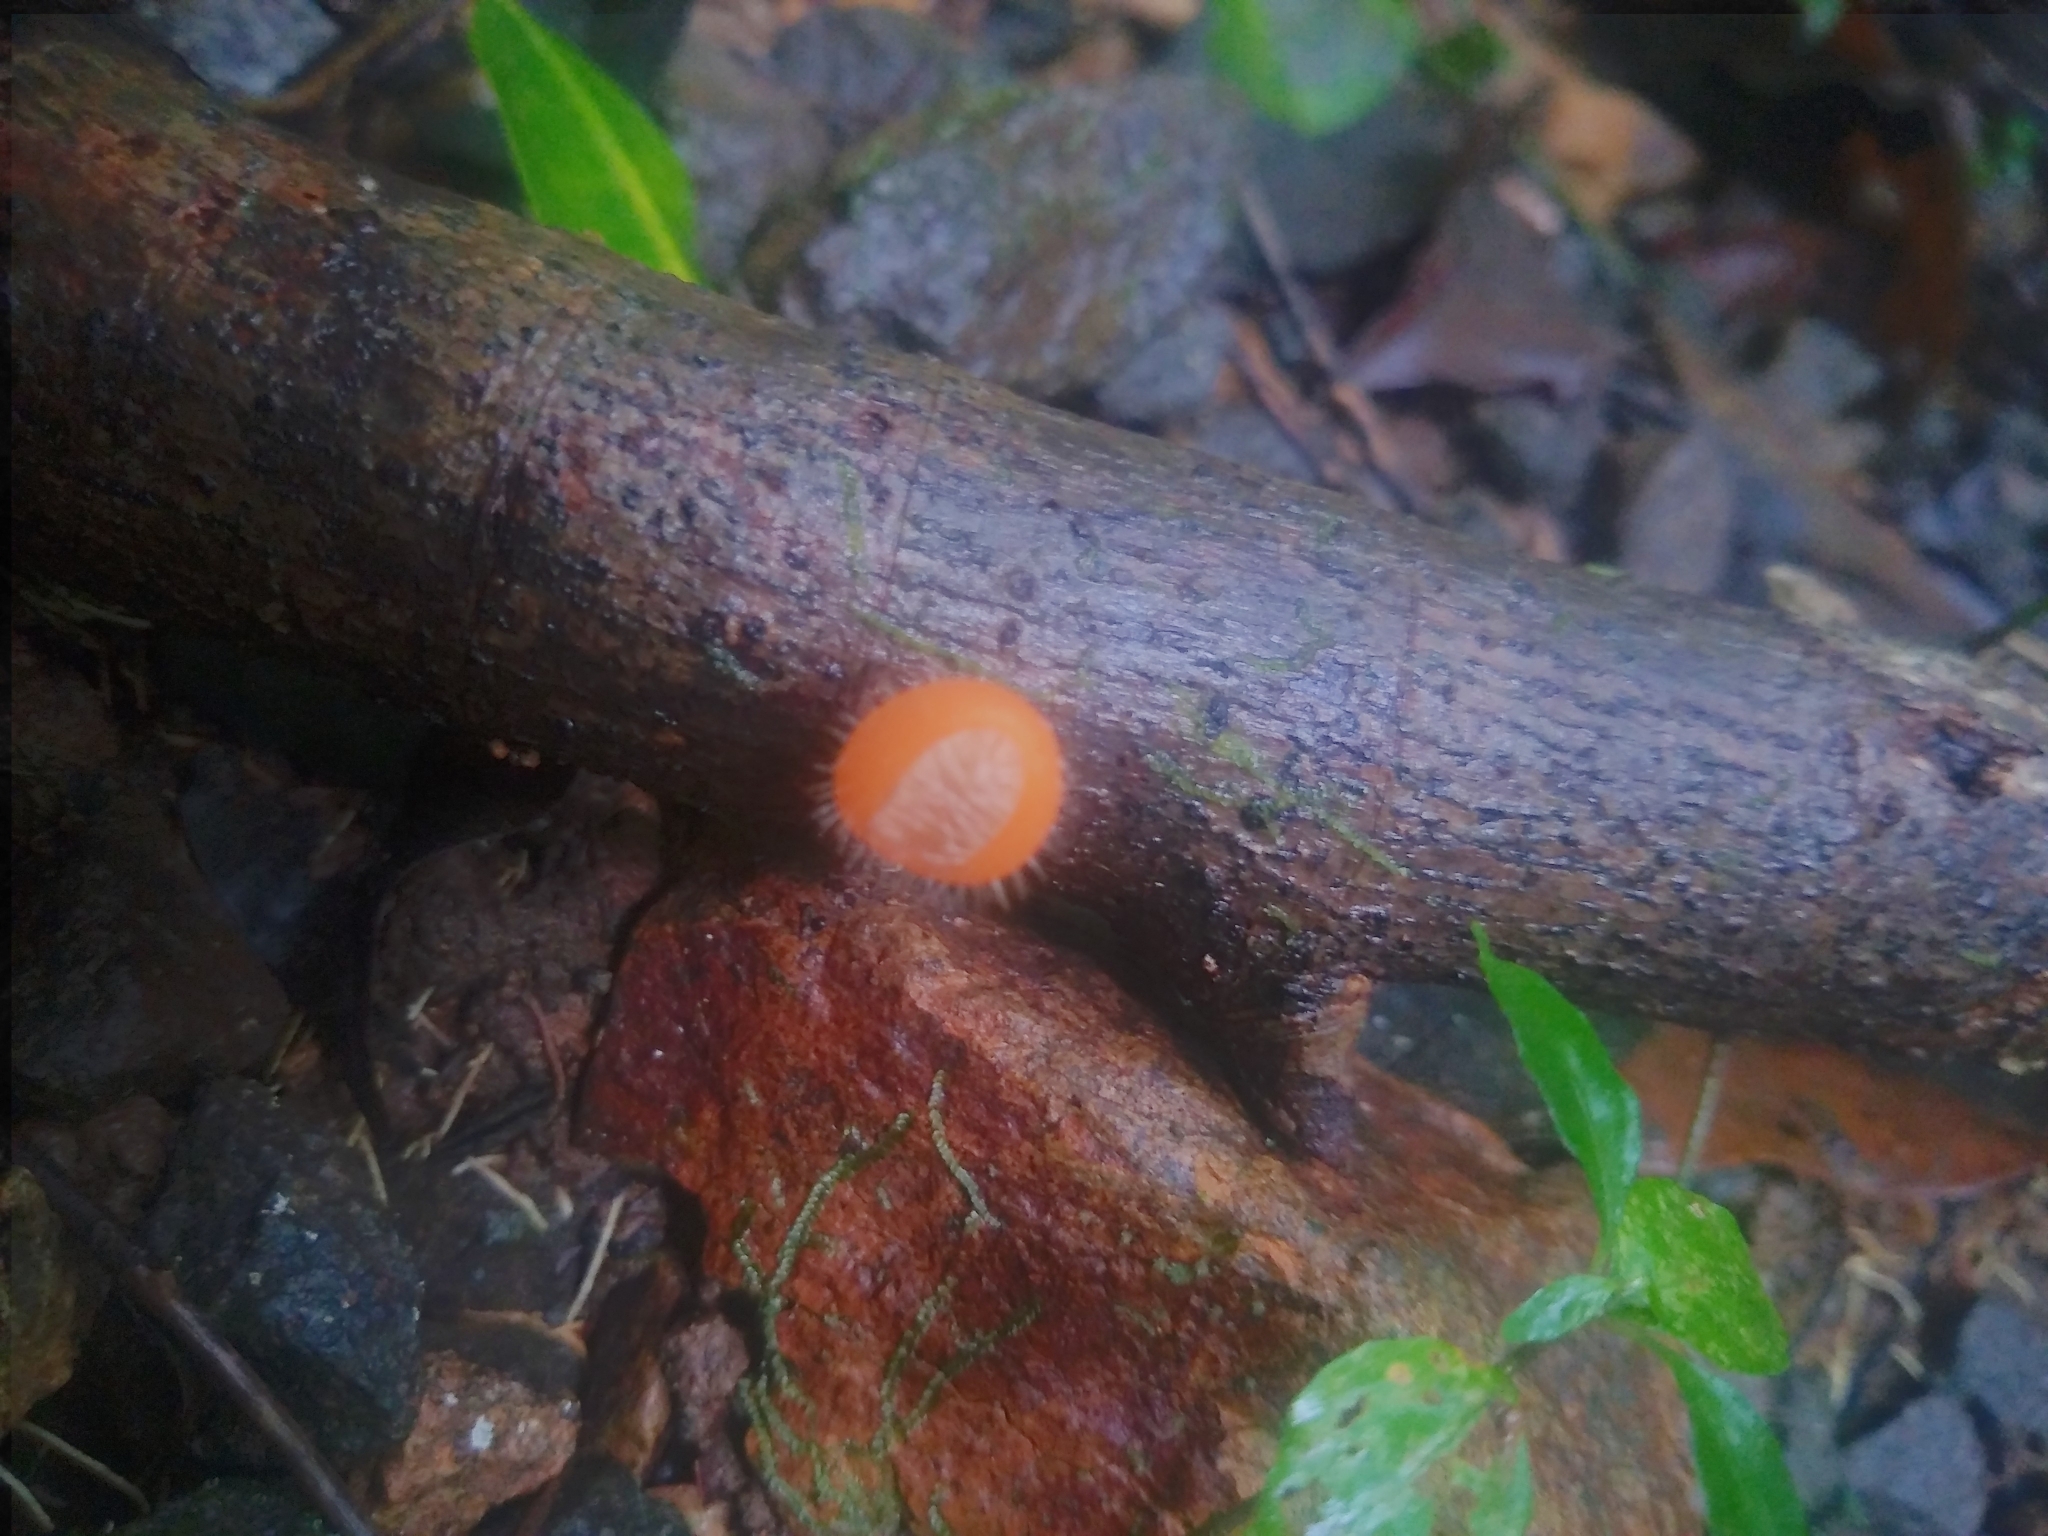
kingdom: Fungi
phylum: Ascomycota
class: Pezizomycetes
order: Pezizales
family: Sarcoscyphaceae
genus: Cookeina
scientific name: Cookeina tricholoma
